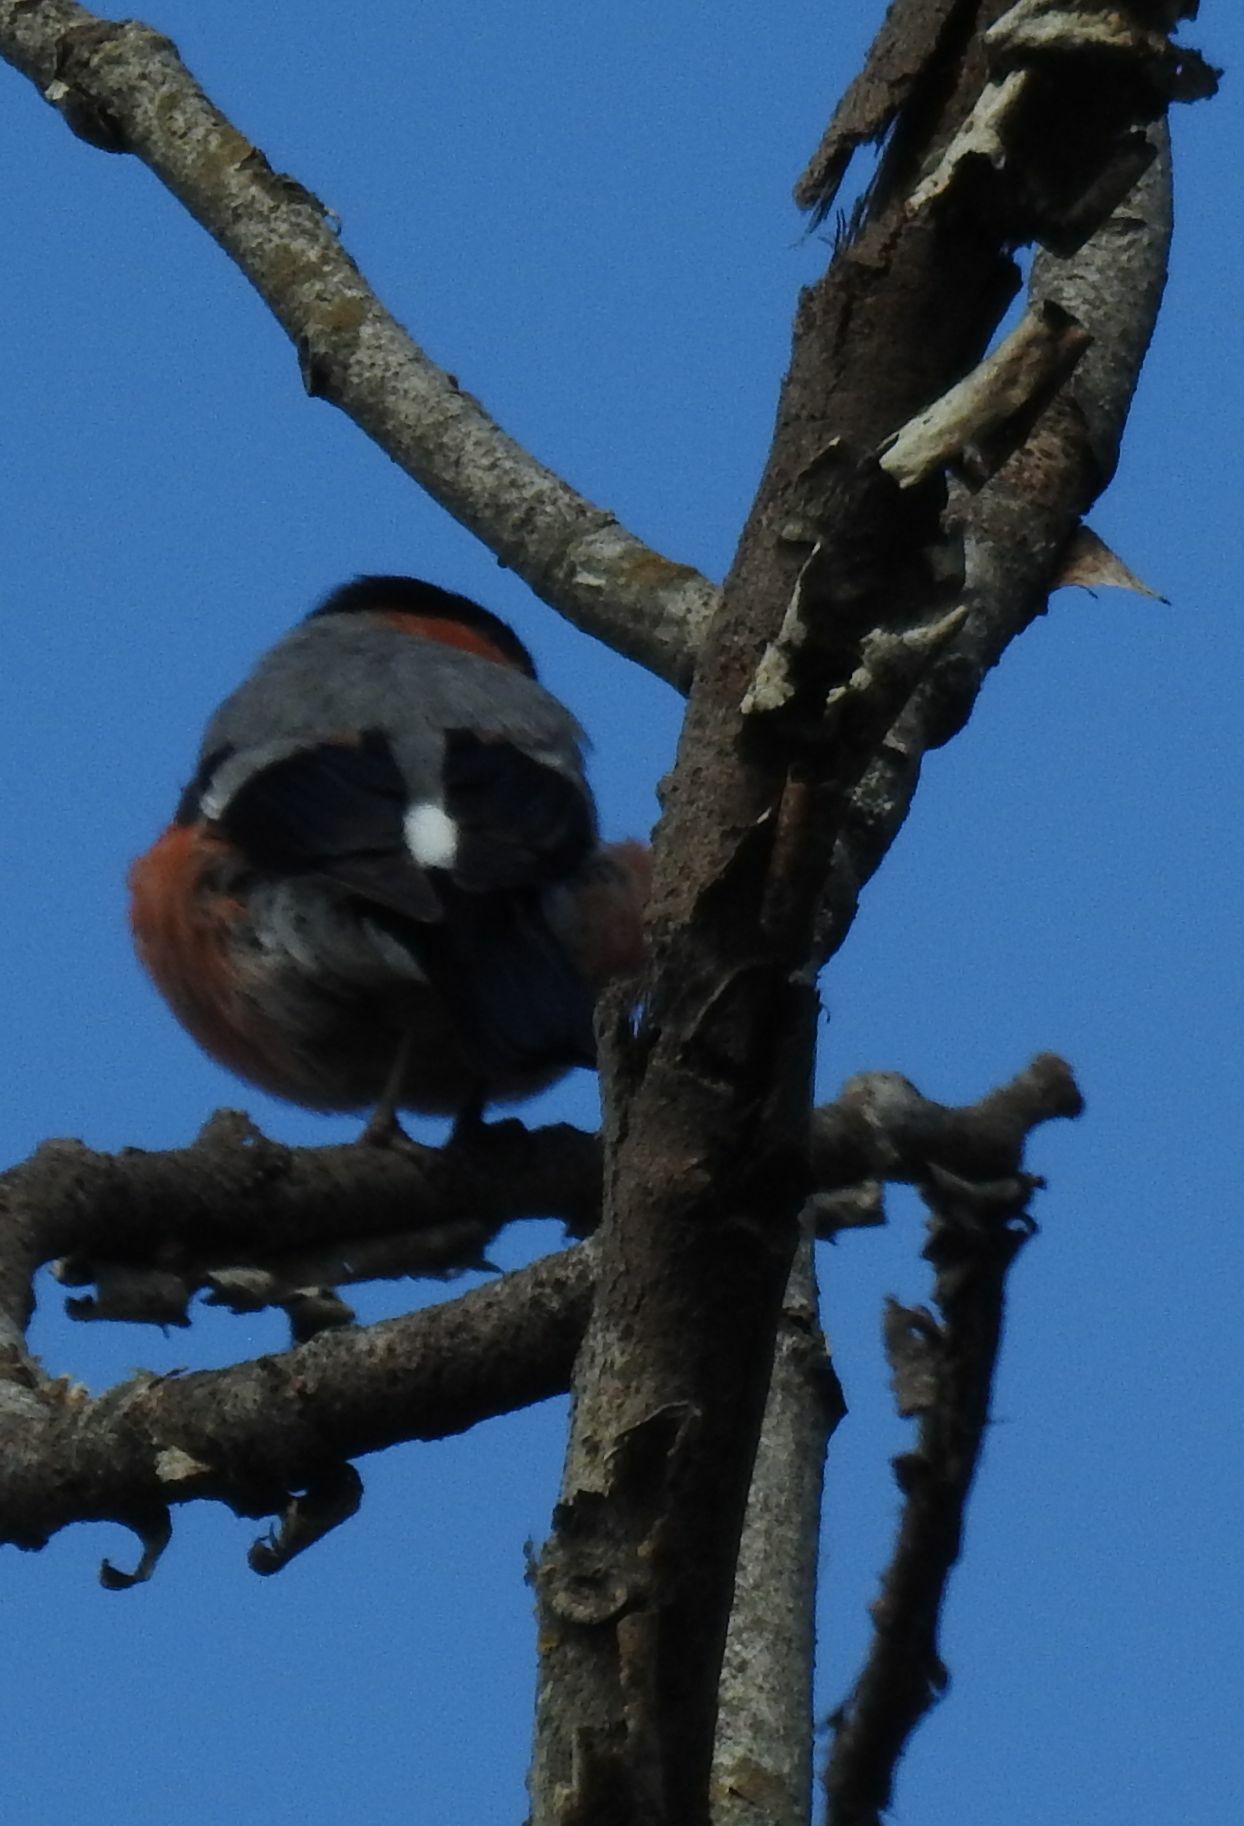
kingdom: Animalia
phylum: Chordata
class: Aves
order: Passeriformes
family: Fringillidae
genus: Pyrrhula
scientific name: Pyrrhula pyrrhula
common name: Eurasian bullfinch
